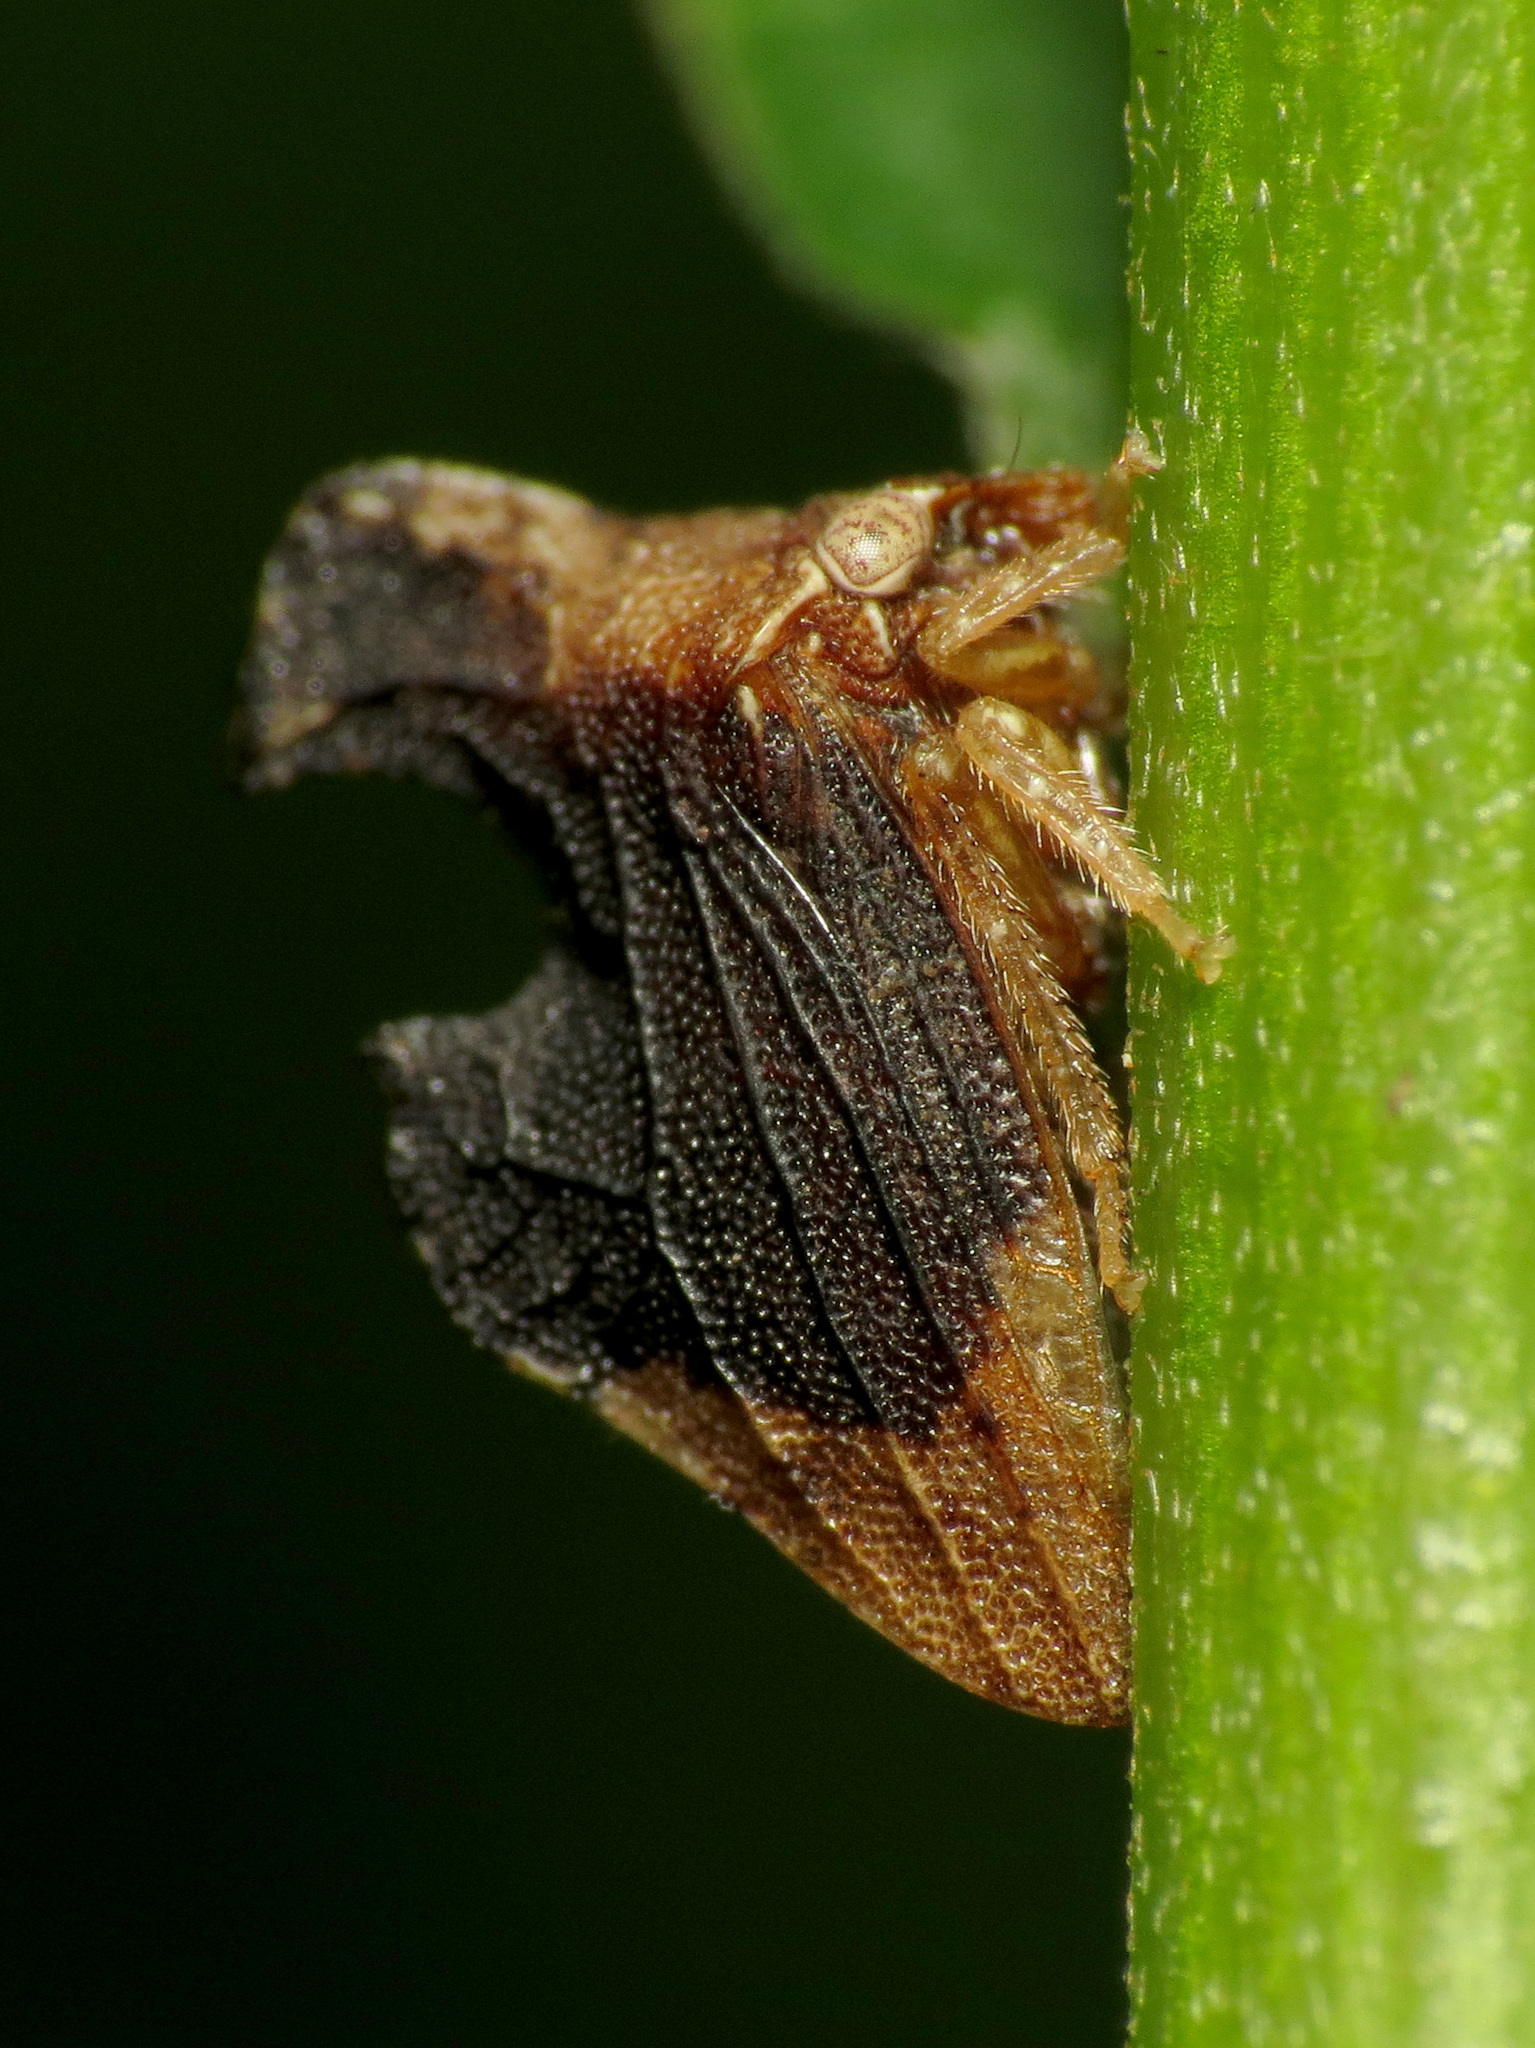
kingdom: Animalia
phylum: Arthropoda
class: Insecta
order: Hemiptera
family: Membracidae
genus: Entylia
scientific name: Entylia carinata
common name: Keeled treehopper
